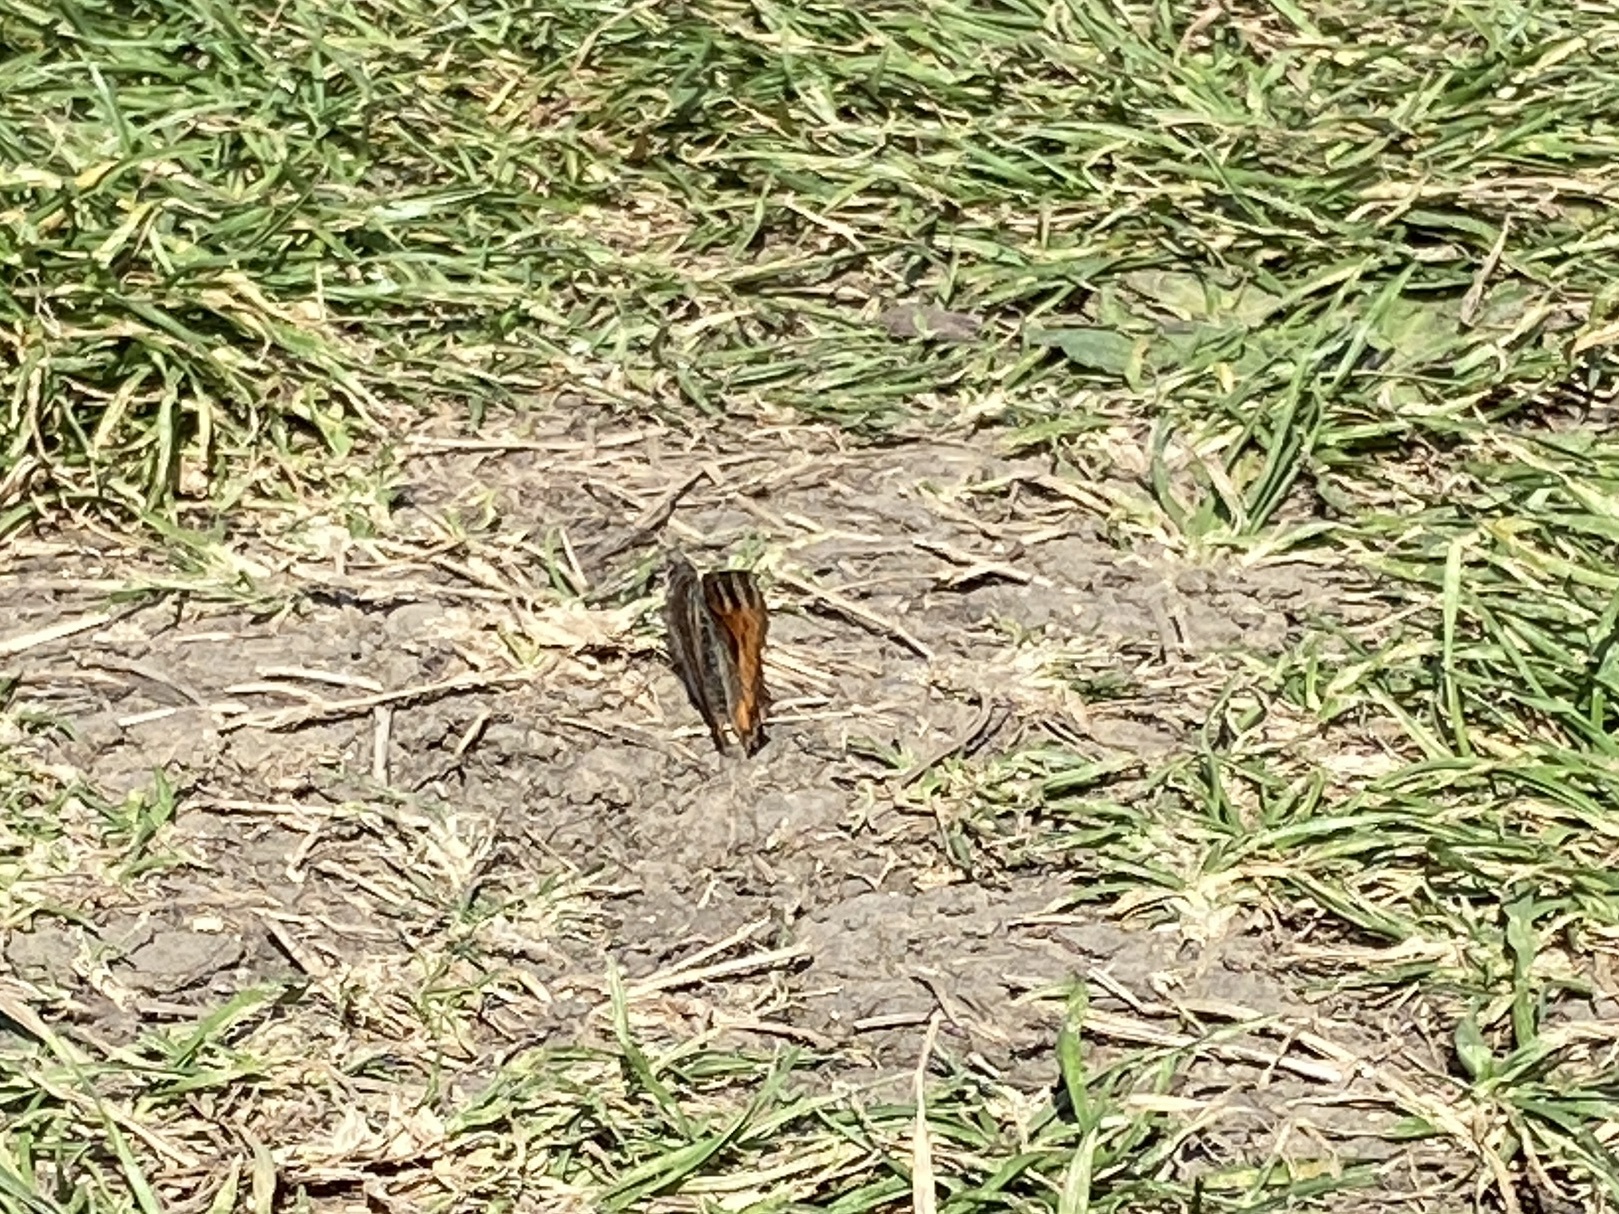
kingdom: Animalia
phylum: Arthropoda
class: Insecta
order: Lepidoptera
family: Nymphalidae
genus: Aglais
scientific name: Aglais urticae
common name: Small tortoiseshell
